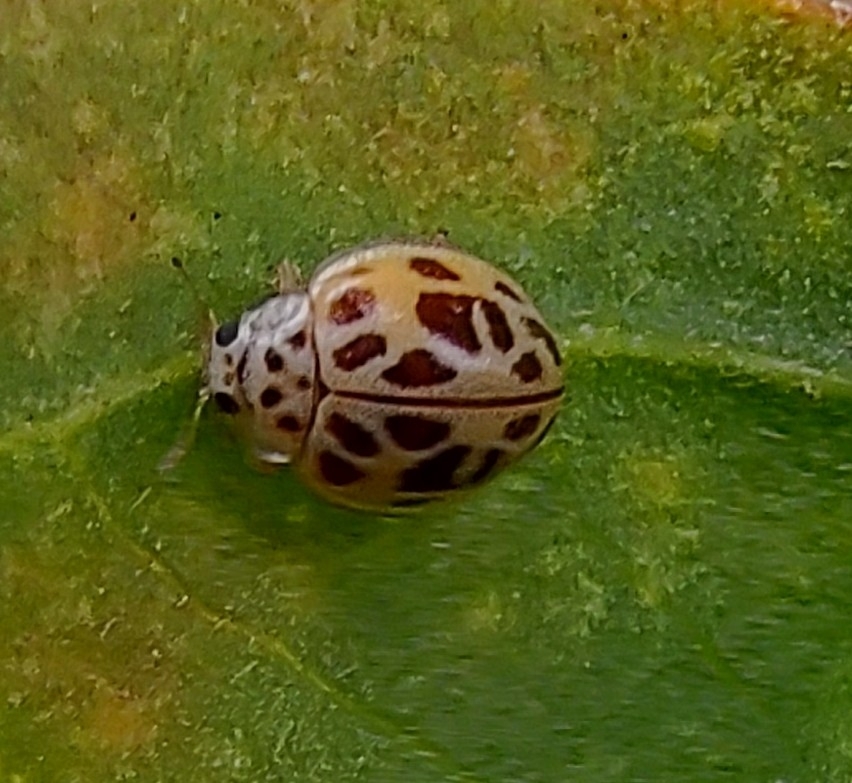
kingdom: Animalia
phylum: Arthropoda
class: Insecta
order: Coleoptera
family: Coccinellidae
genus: Psyllobora
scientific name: Psyllobora
